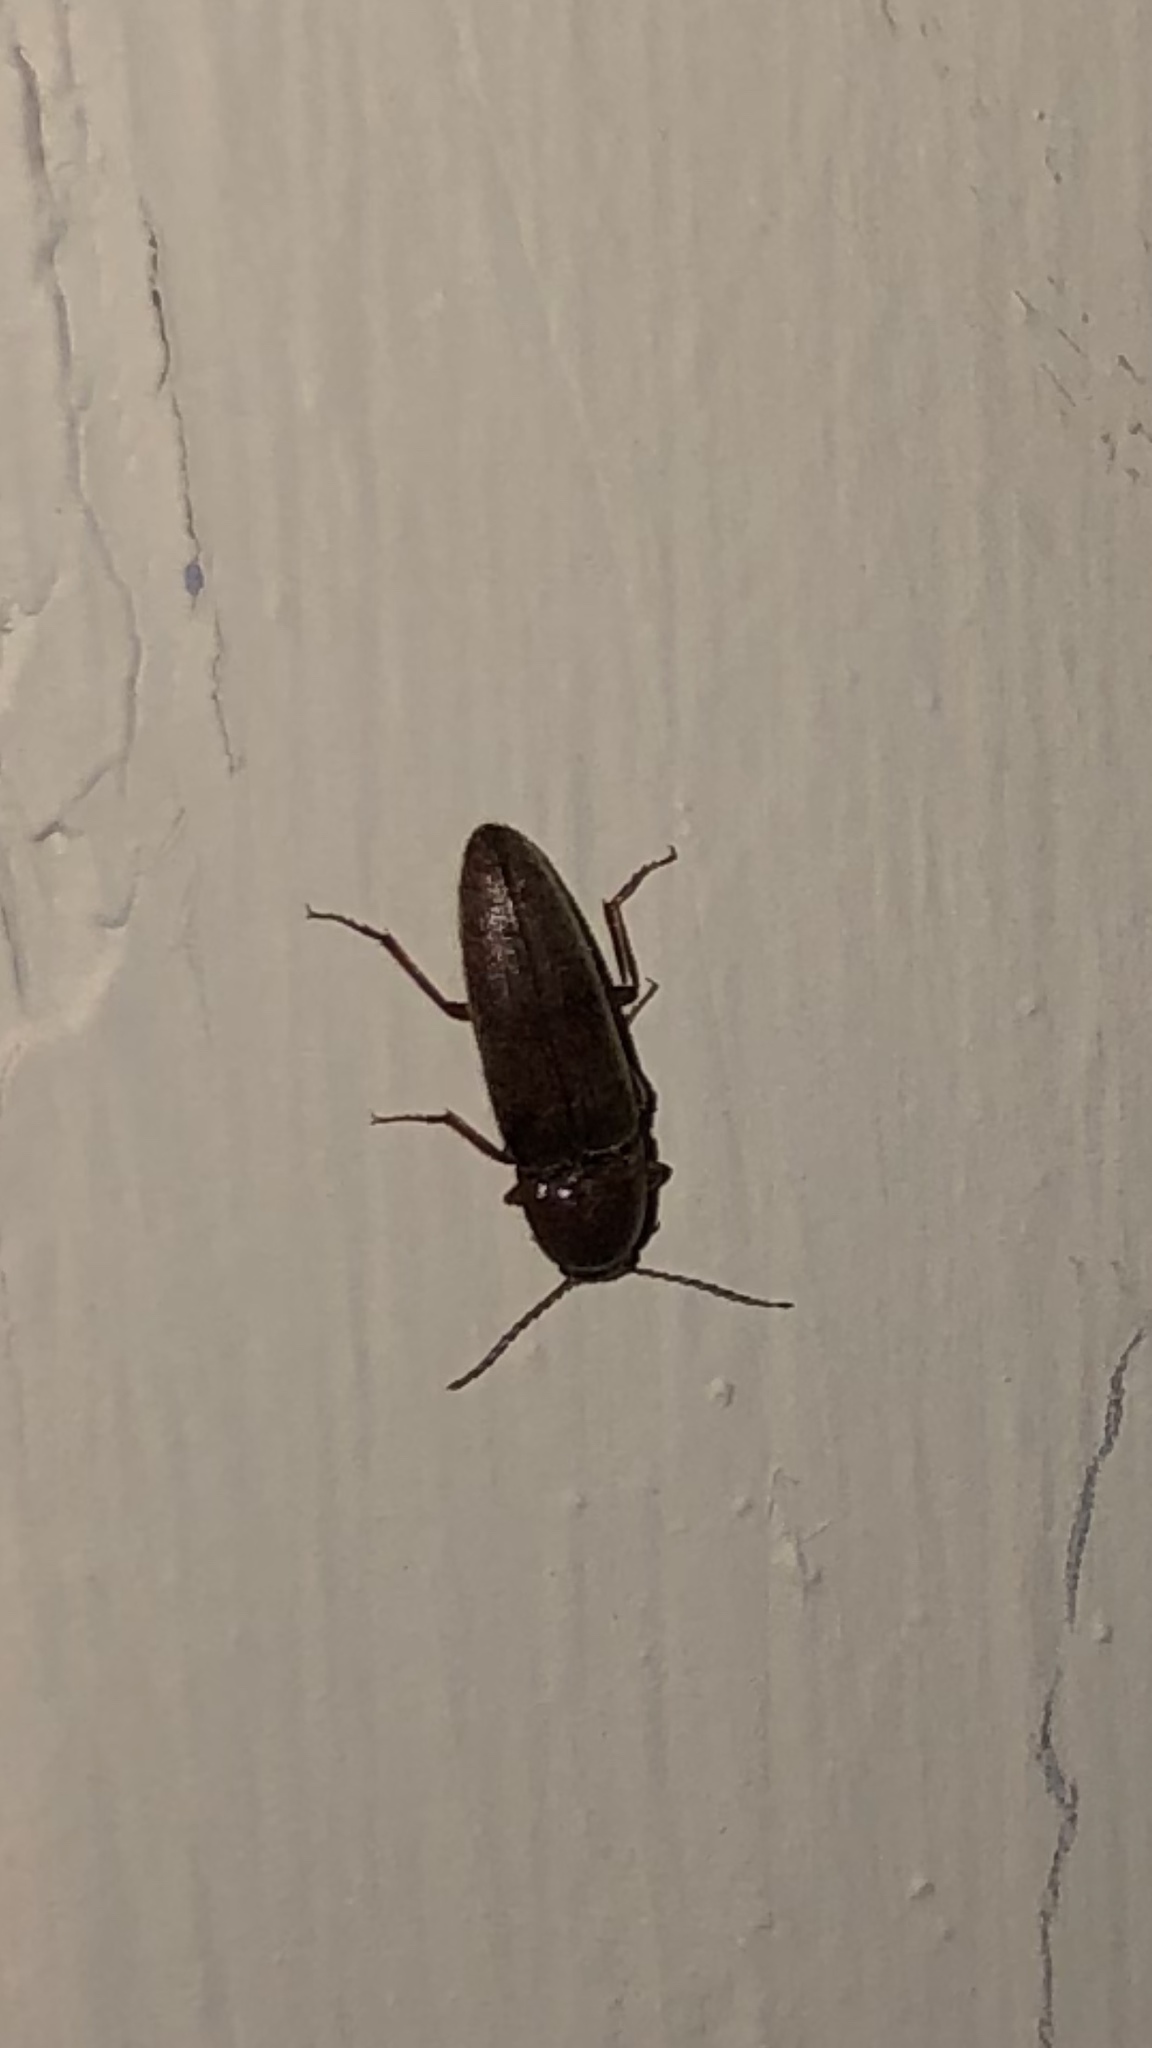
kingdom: Animalia
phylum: Arthropoda
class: Insecta
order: Coleoptera
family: Elateridae
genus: Melanotus
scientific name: Melanotus
